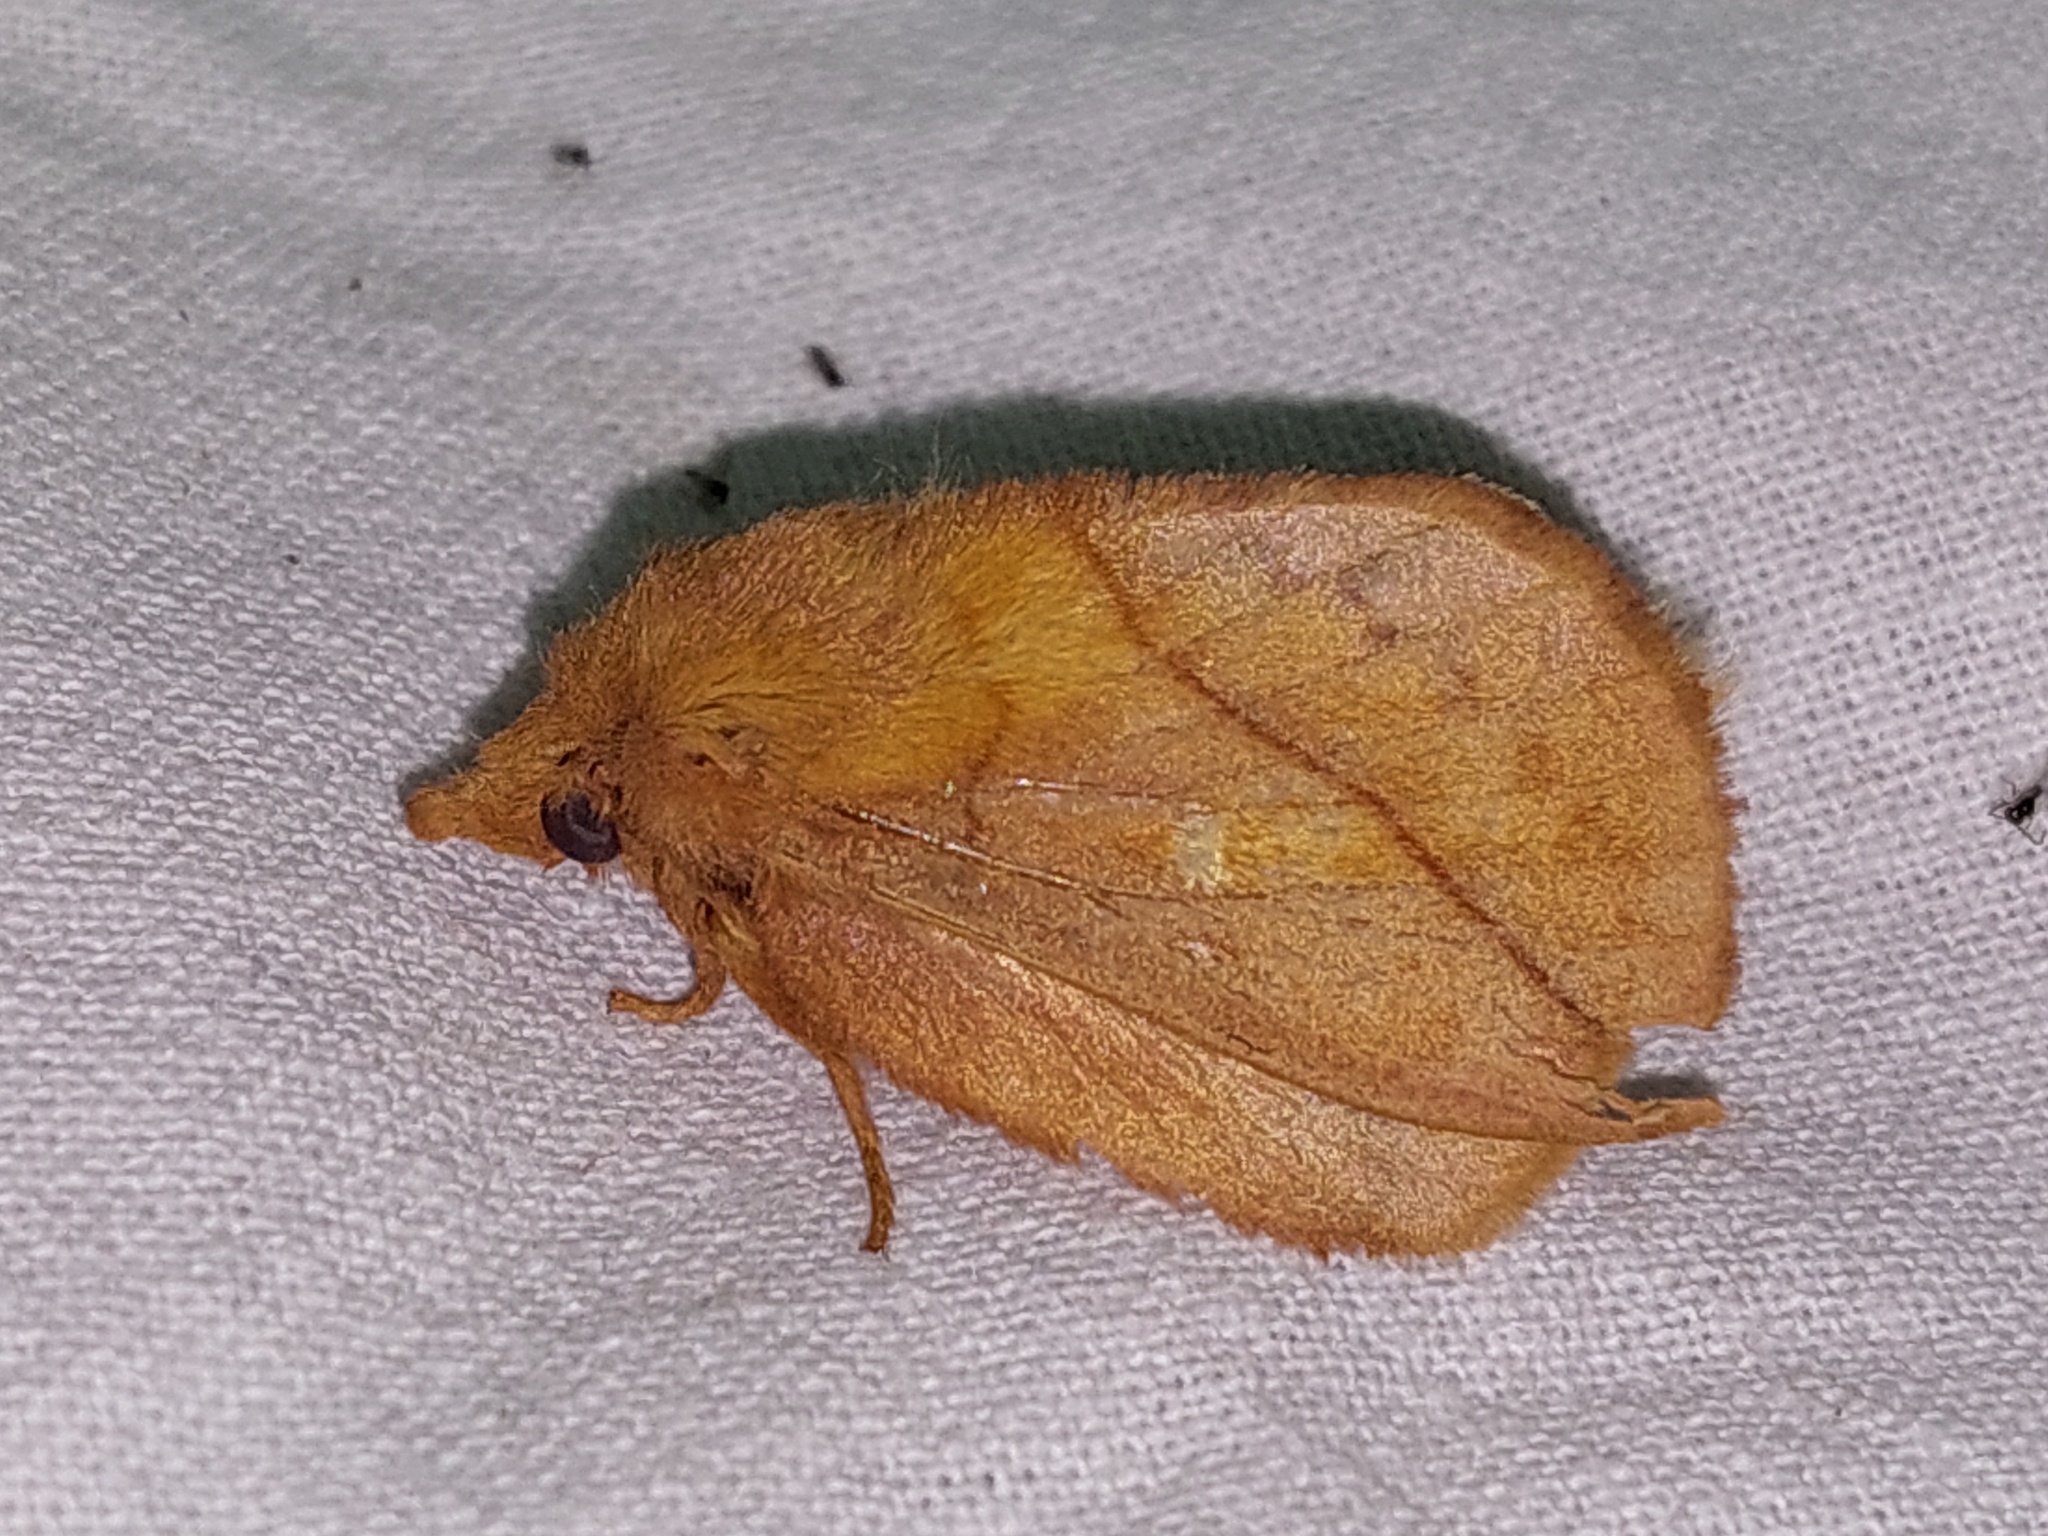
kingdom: Animalia
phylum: Arthropoda
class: Insecta
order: Lepidoptera
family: Lasiocampidae
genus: Euthrix
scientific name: Euthrix potatoria
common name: Drinker
